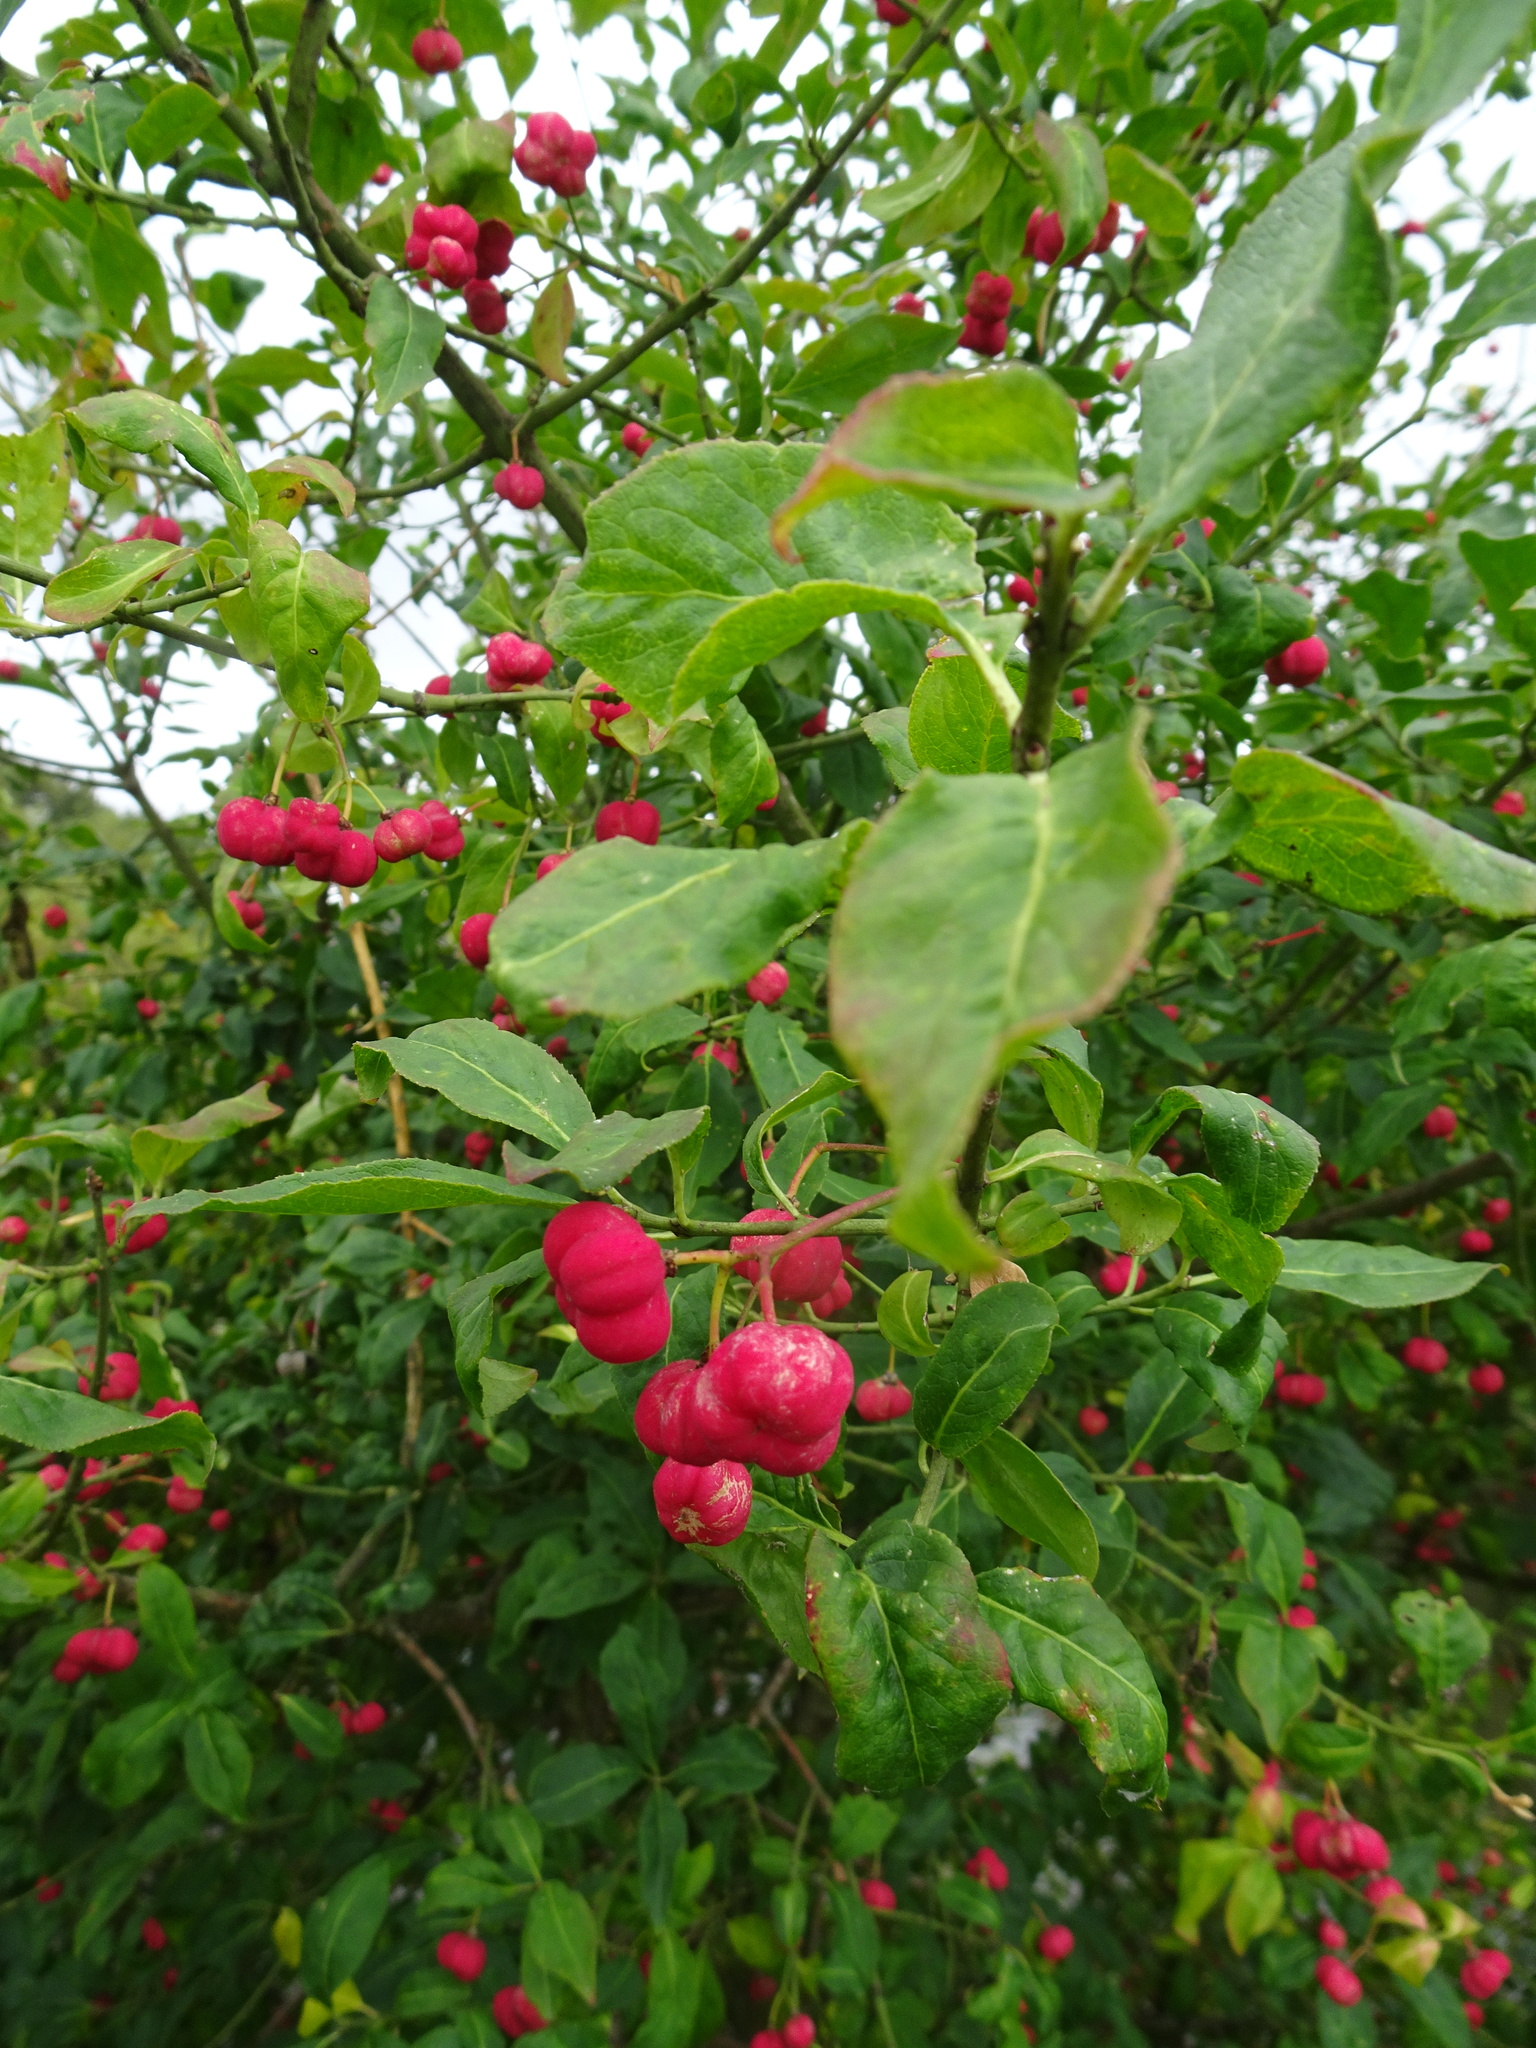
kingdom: Plantae
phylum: Tracheophyta
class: Magnoliopsida
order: Celastrales
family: Celastraceae
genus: Euonymus
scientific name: Euonymus europaeus
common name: Spindle
